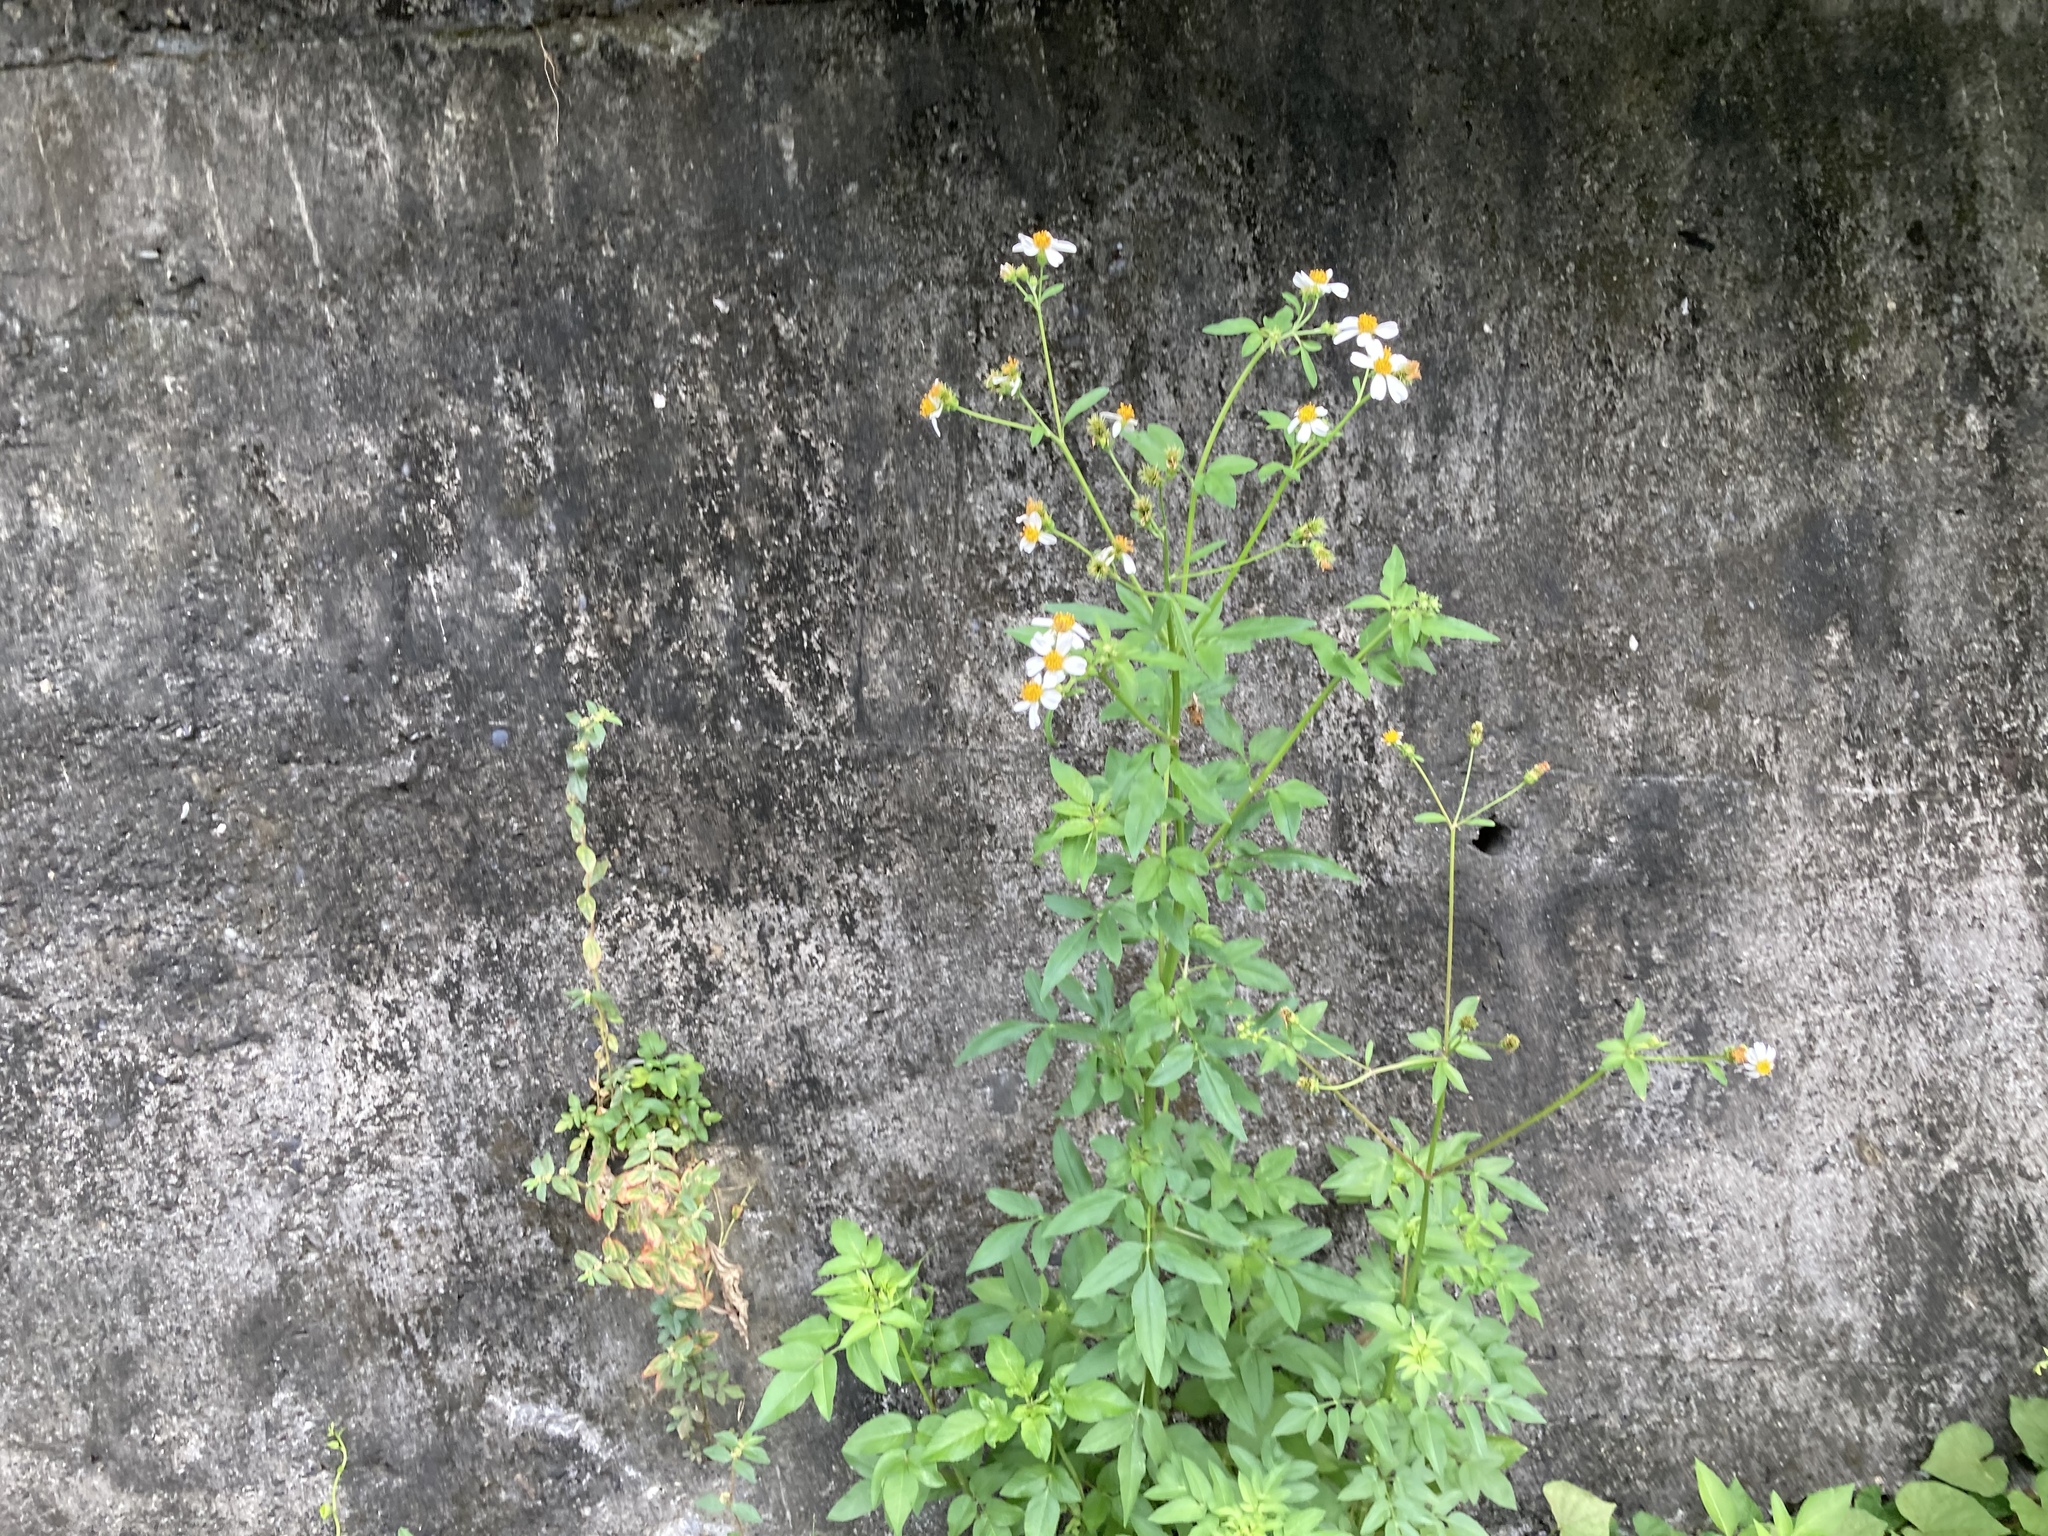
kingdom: Plantae
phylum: Tracheophyta
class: Magnoliopsida
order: Asterales
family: Asteraceae
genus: Bidens
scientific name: Bidens alba
